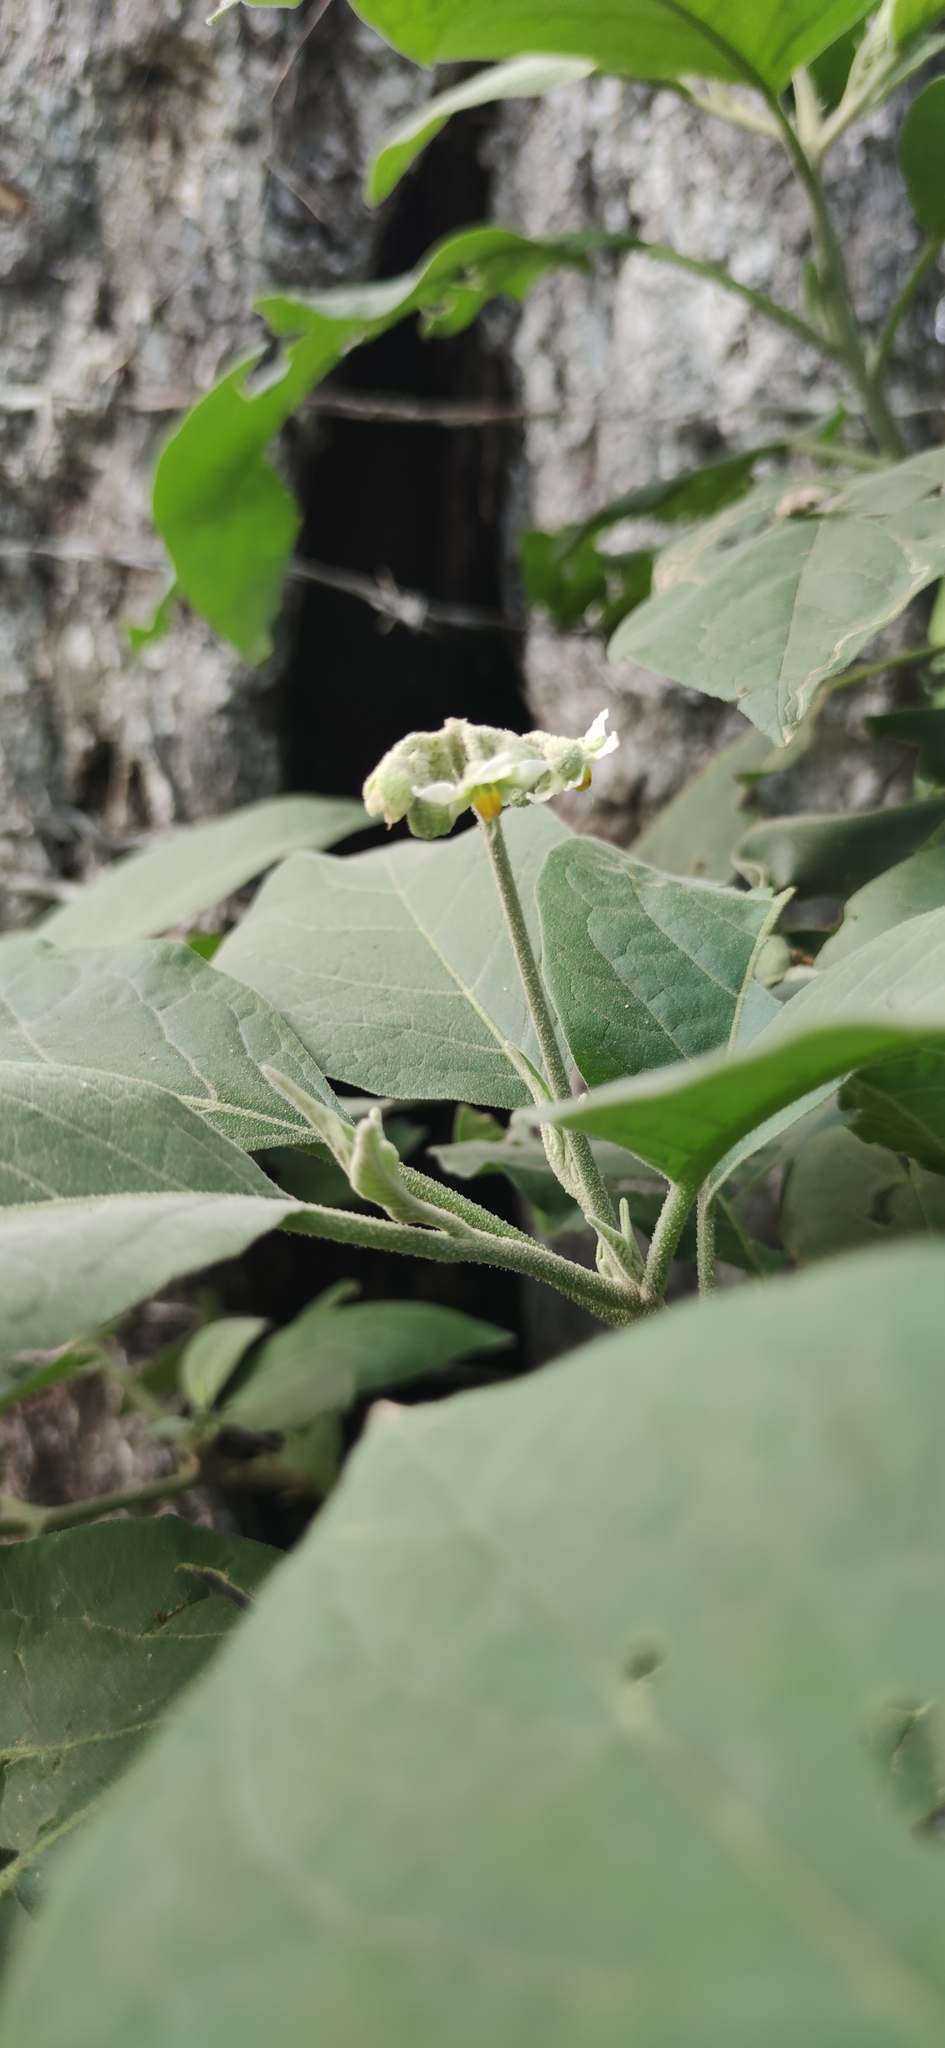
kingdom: Plantae
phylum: Tracheophyta
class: Magnoliopsida
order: Solanales
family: Solanaceae
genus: Solanum
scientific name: Solanum erianthum
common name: Tobacco-tree
